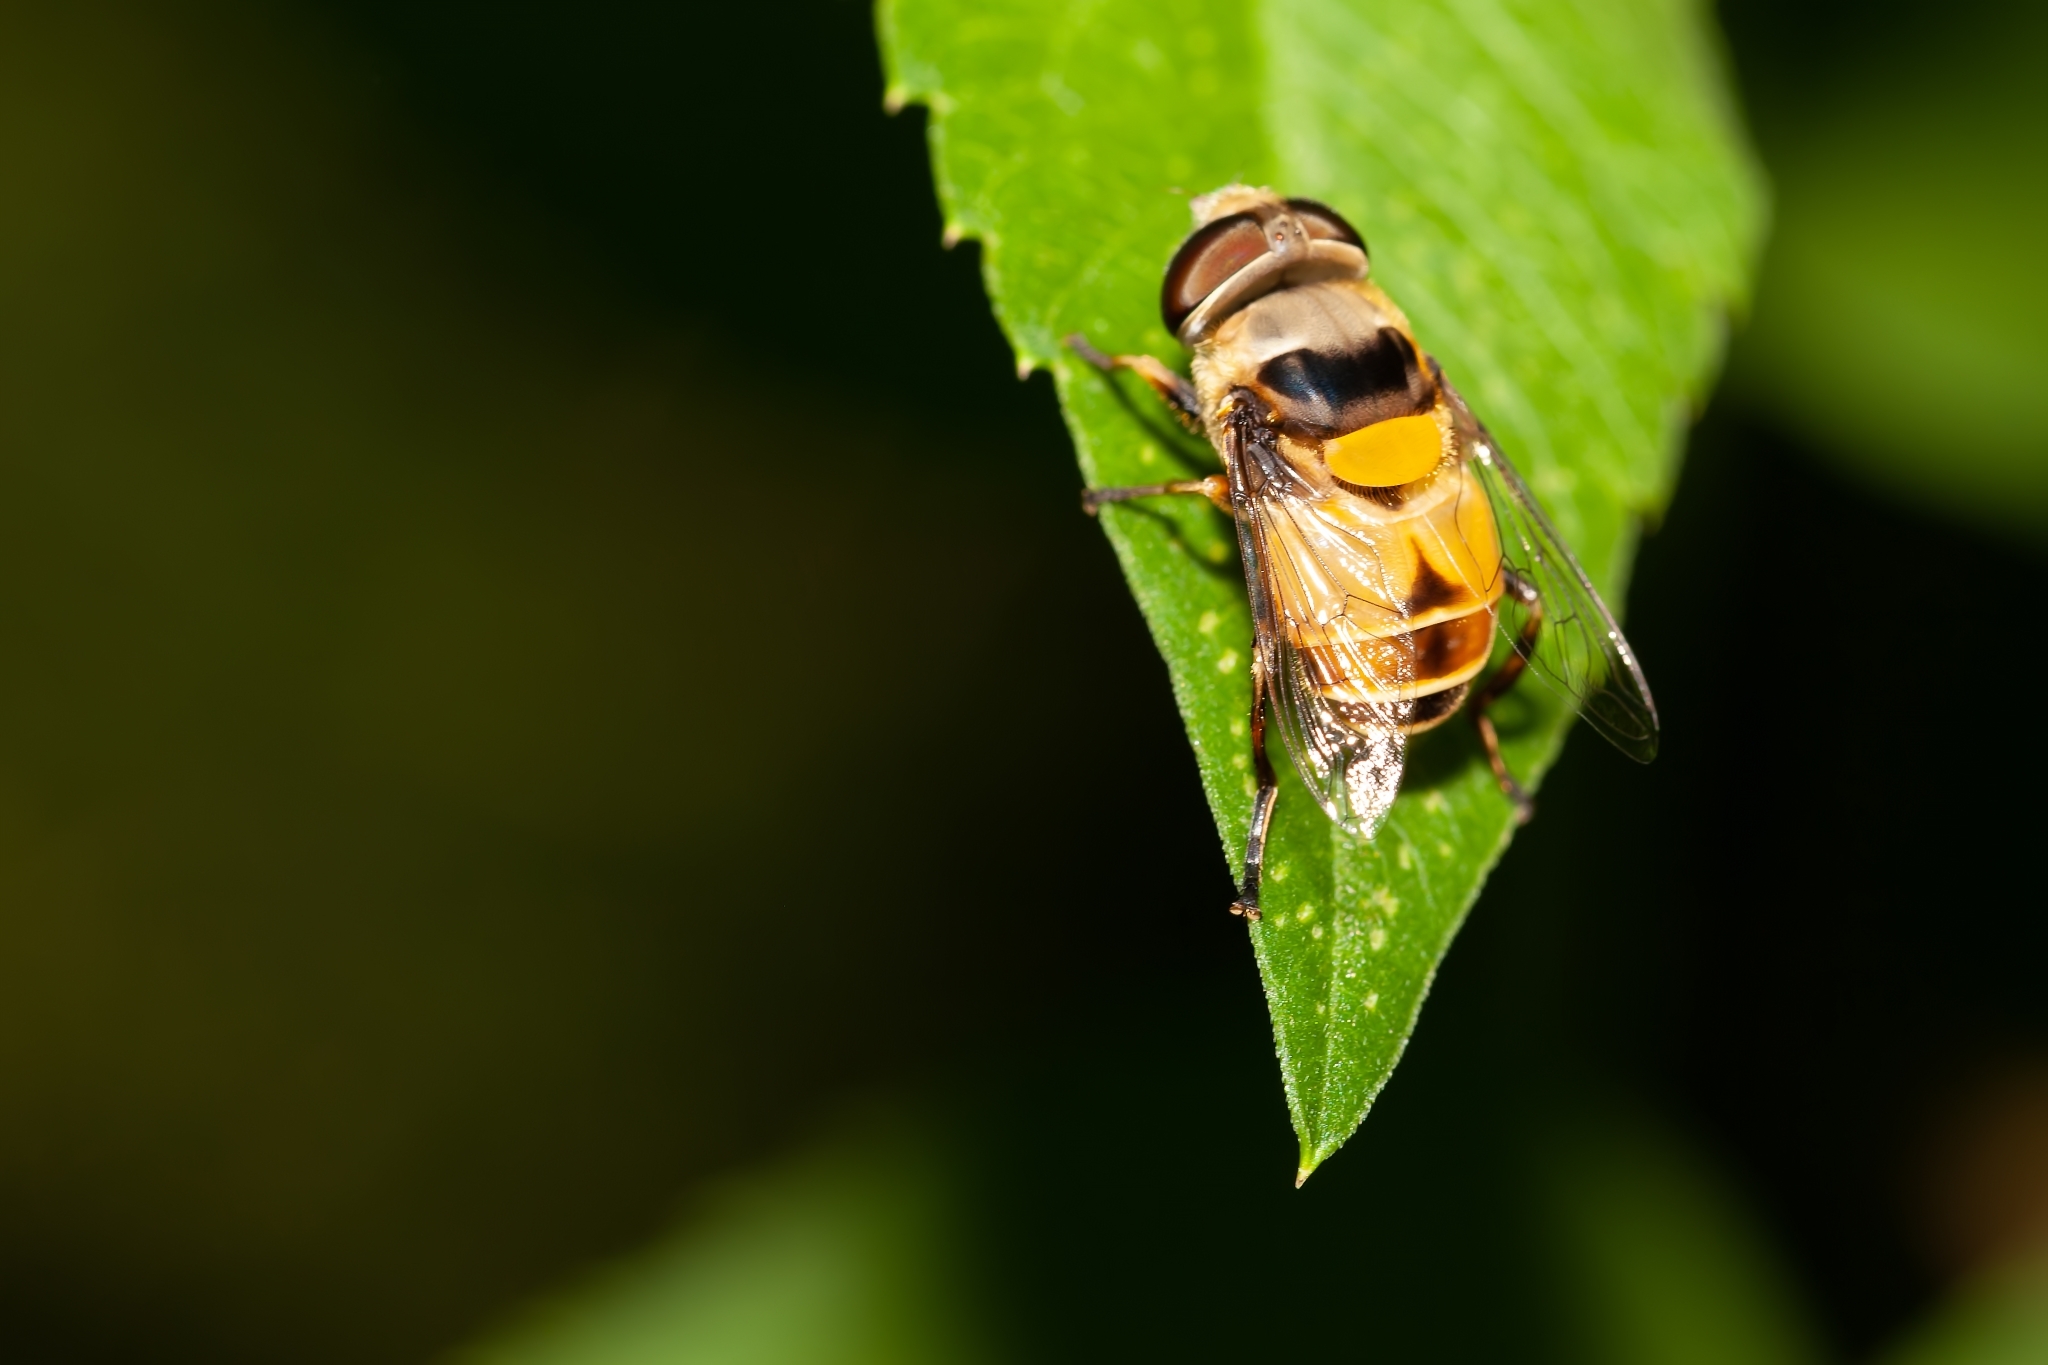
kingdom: Animalia
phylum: Arthropoda
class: Insecta
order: Diptera
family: Syrphidae
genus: Palpada
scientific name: Palpada pusilla
